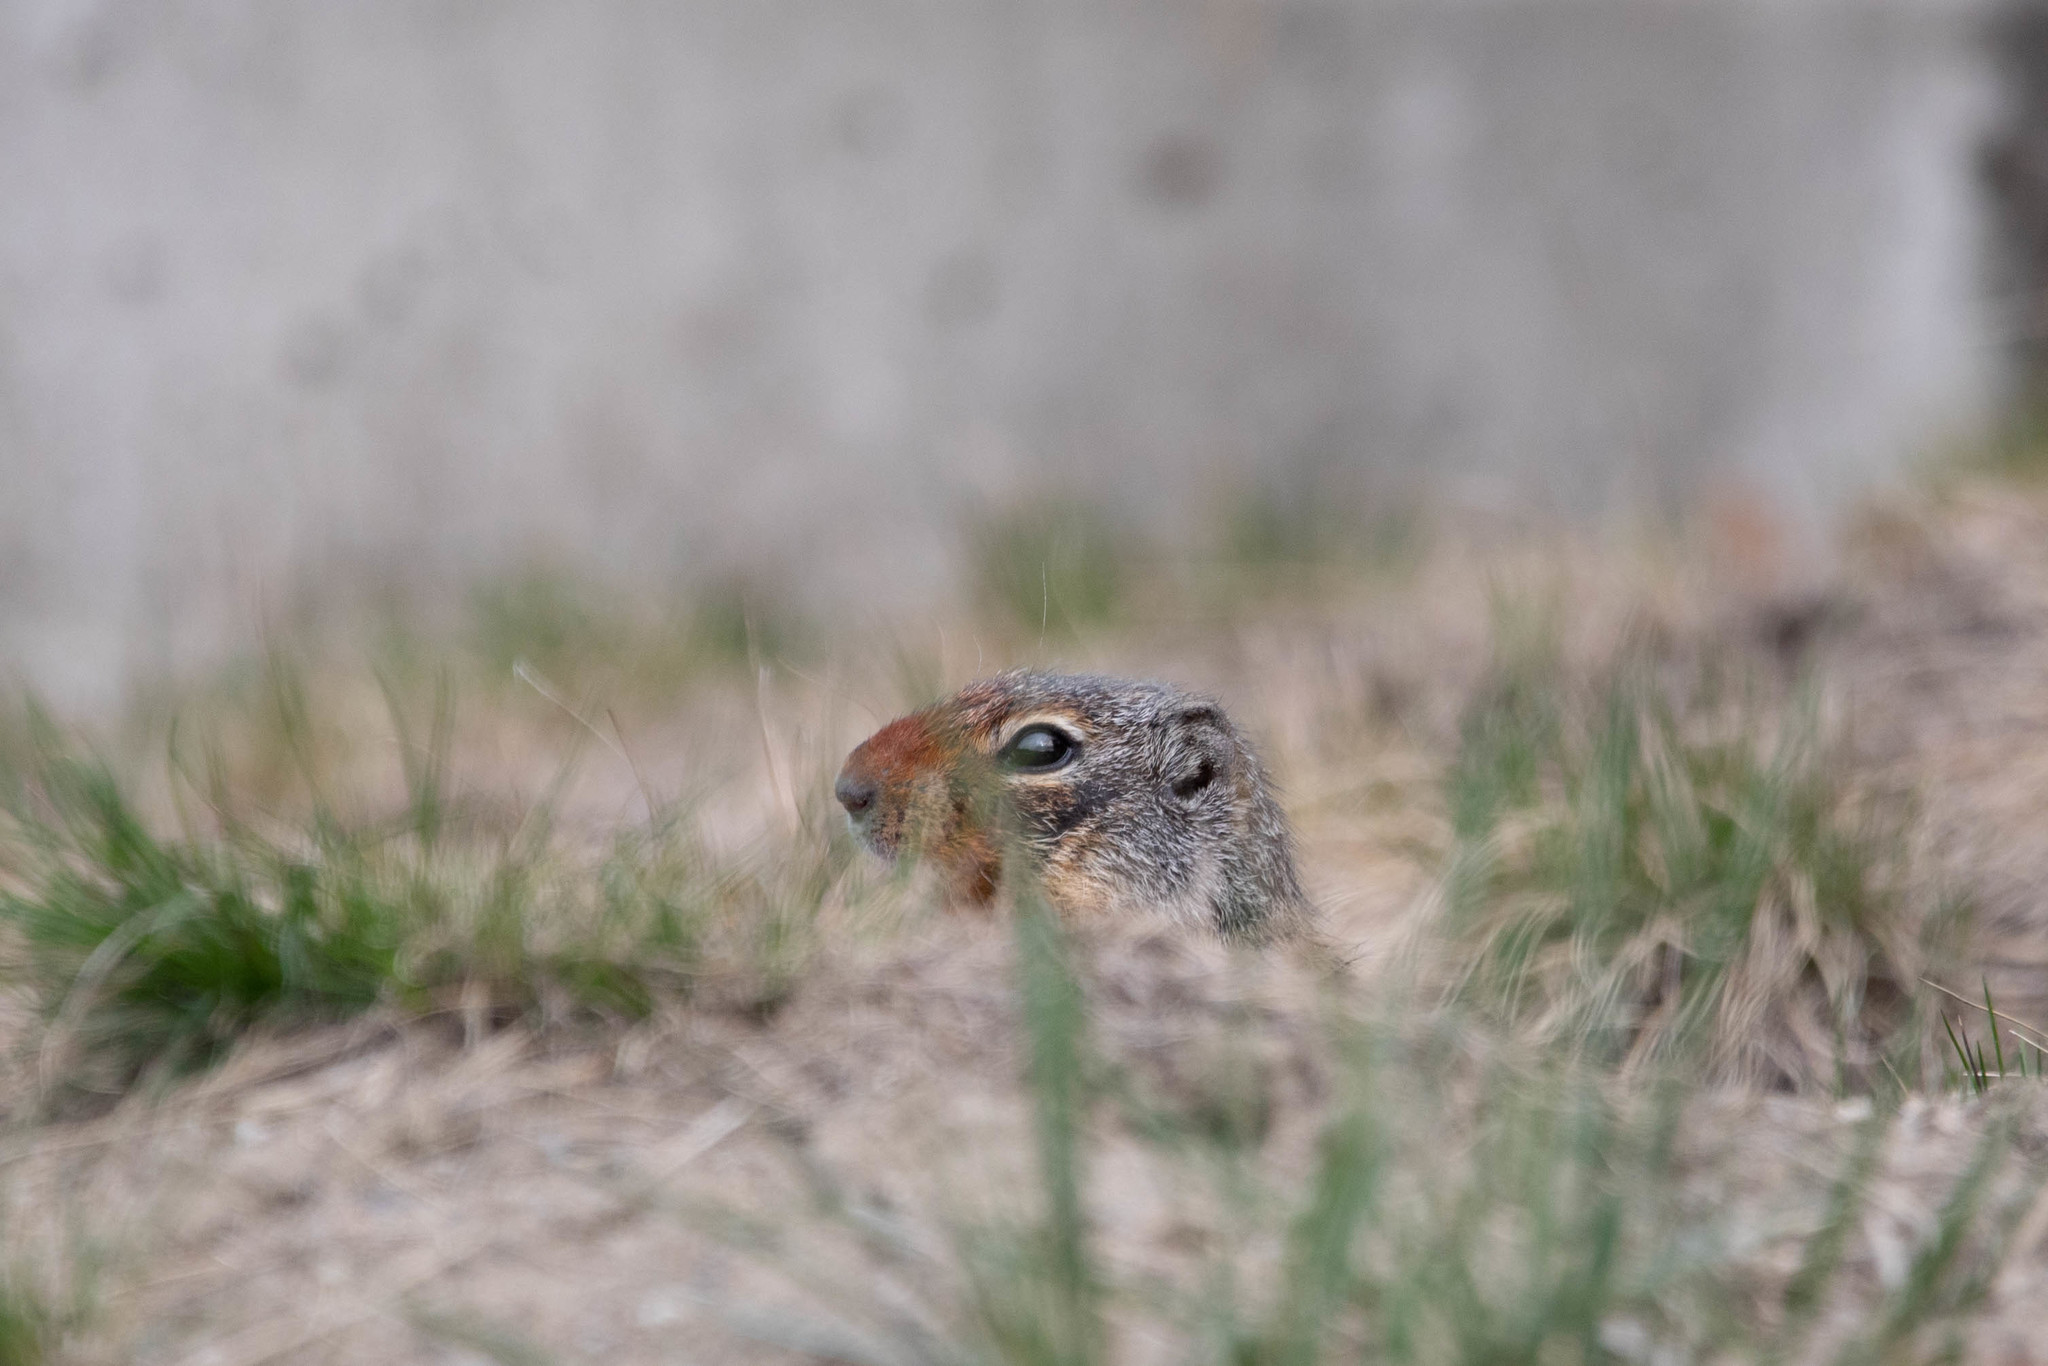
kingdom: Animalia
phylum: Chordata
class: Mammalia
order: Rodentia
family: Sciuridae
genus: Urocitellus
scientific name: Urocitellus columbianus
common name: Columbian ground squirrel
